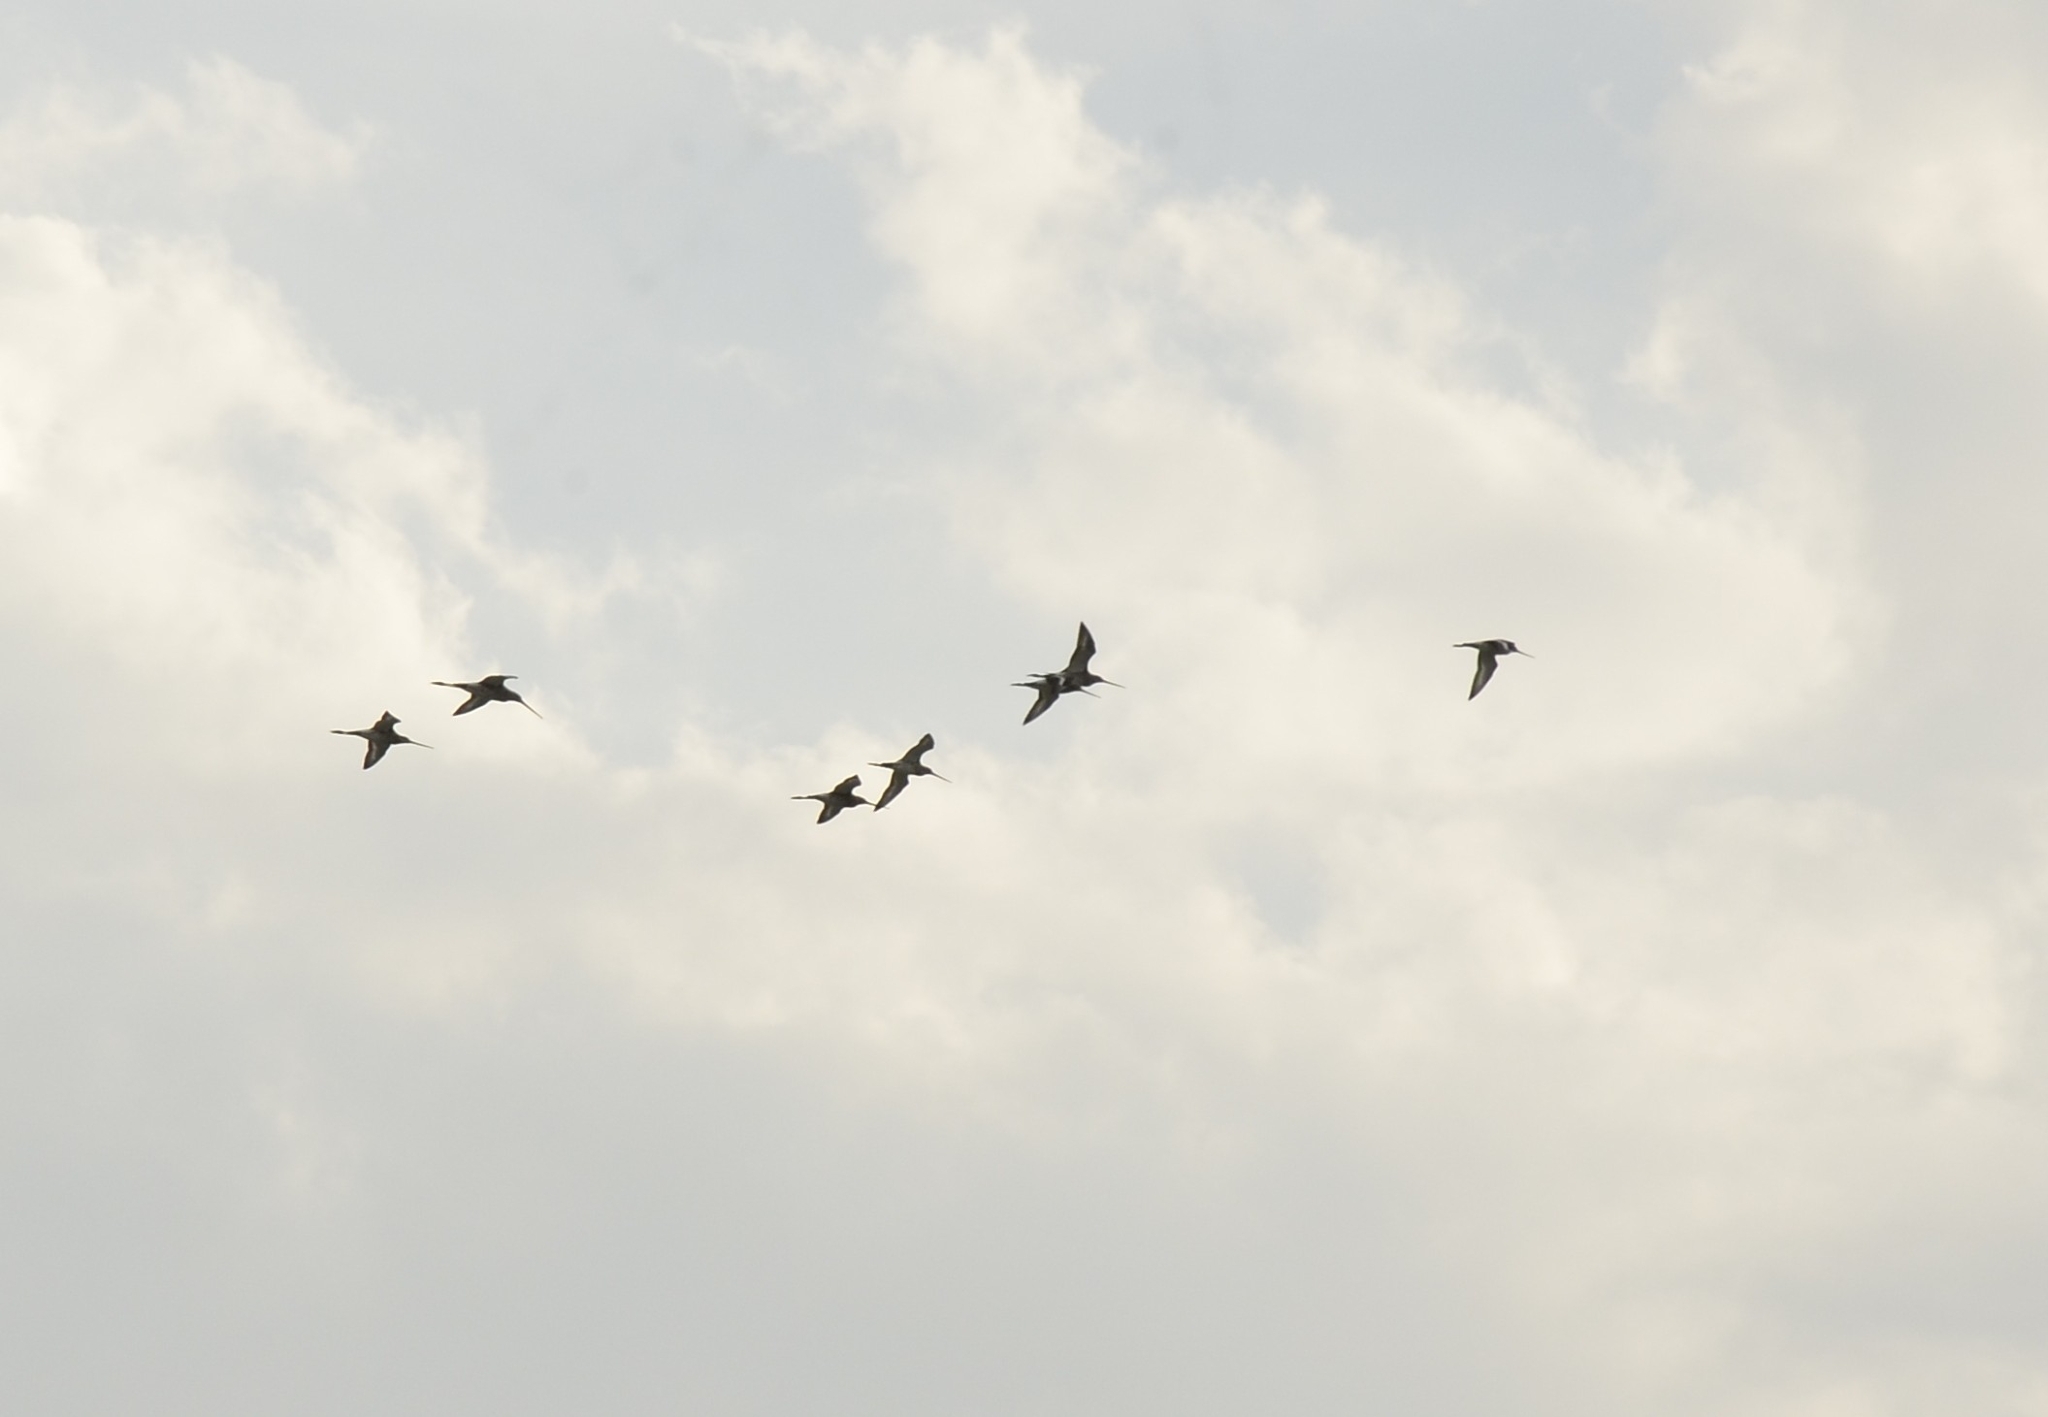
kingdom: Animalia
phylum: Chordata
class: Aves
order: Charadriiformes
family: Scolopacidae
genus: Limosa
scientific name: Limosa limosa
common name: Black-tailed godwit
